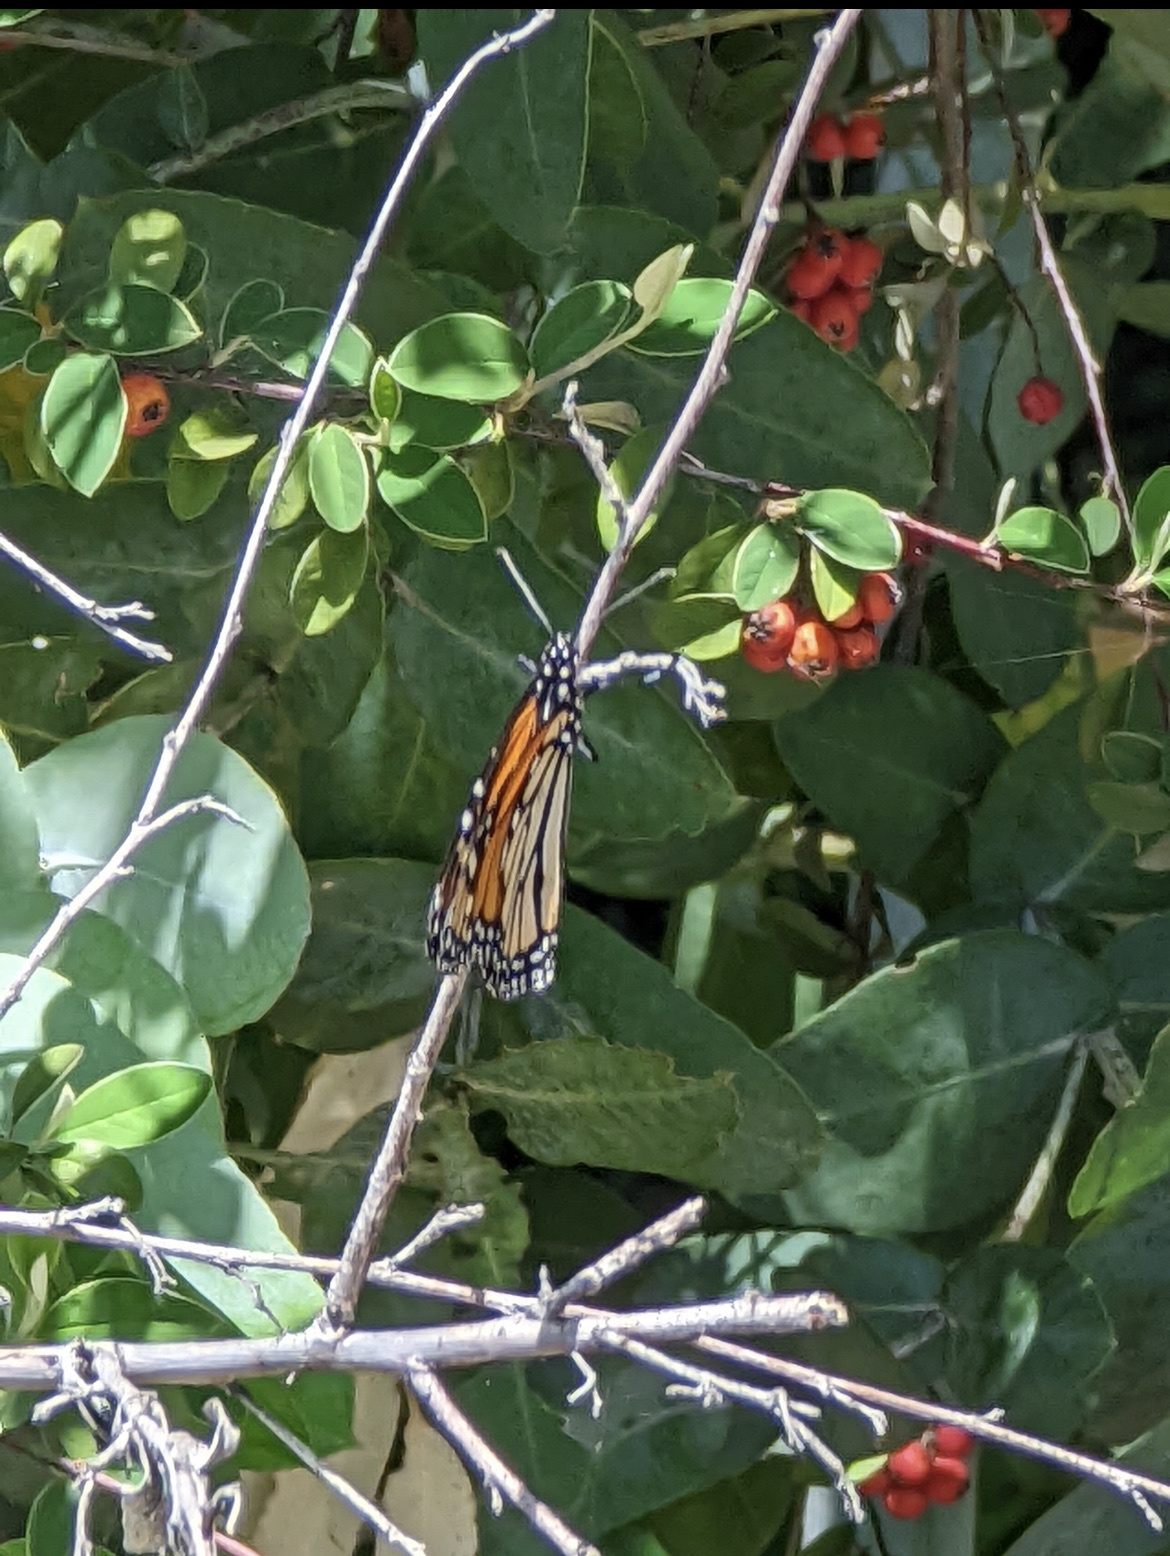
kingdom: Animalia
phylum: Arthropoda
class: Insecta
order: Lepidoptera
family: Nymphalidae
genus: Danaus
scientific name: Danaus plexippus
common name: Monarch
